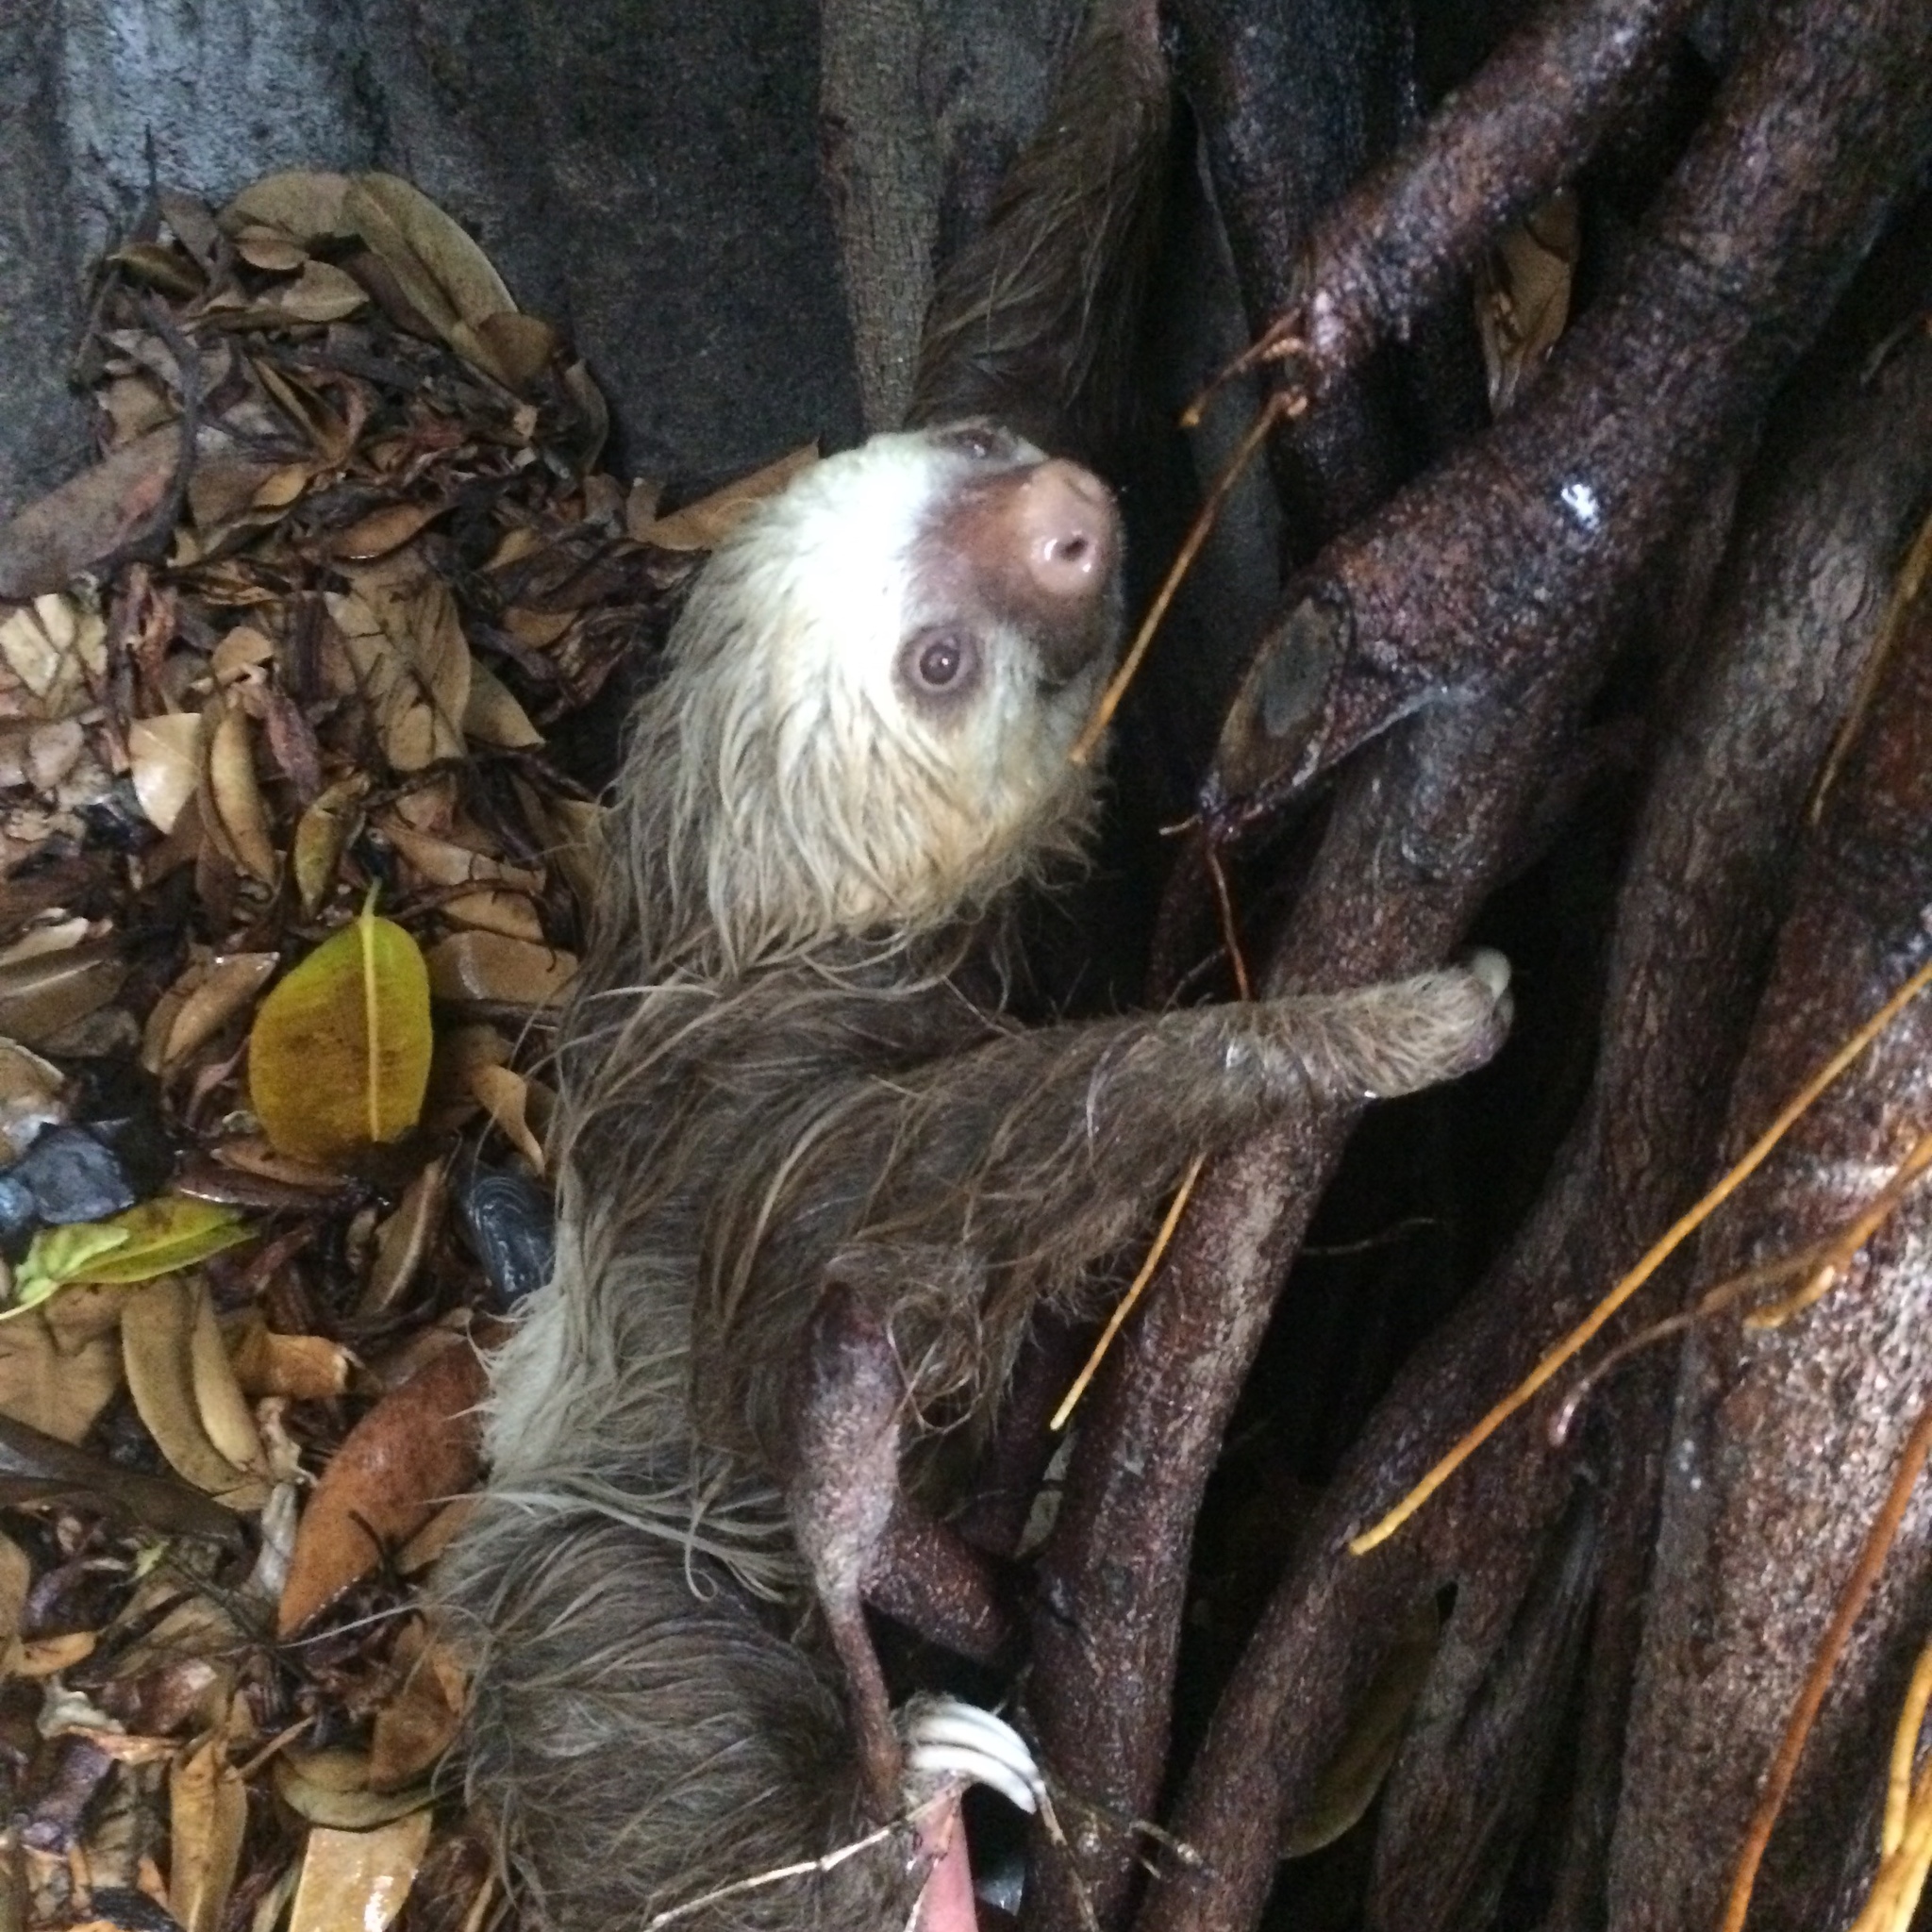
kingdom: Animalia
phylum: Chordata
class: Mammalia
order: Pilosa
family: Megalonychidae
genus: Choloepus
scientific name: Choloepus hoffmanni
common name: Hoffmann's two-toed sloth
